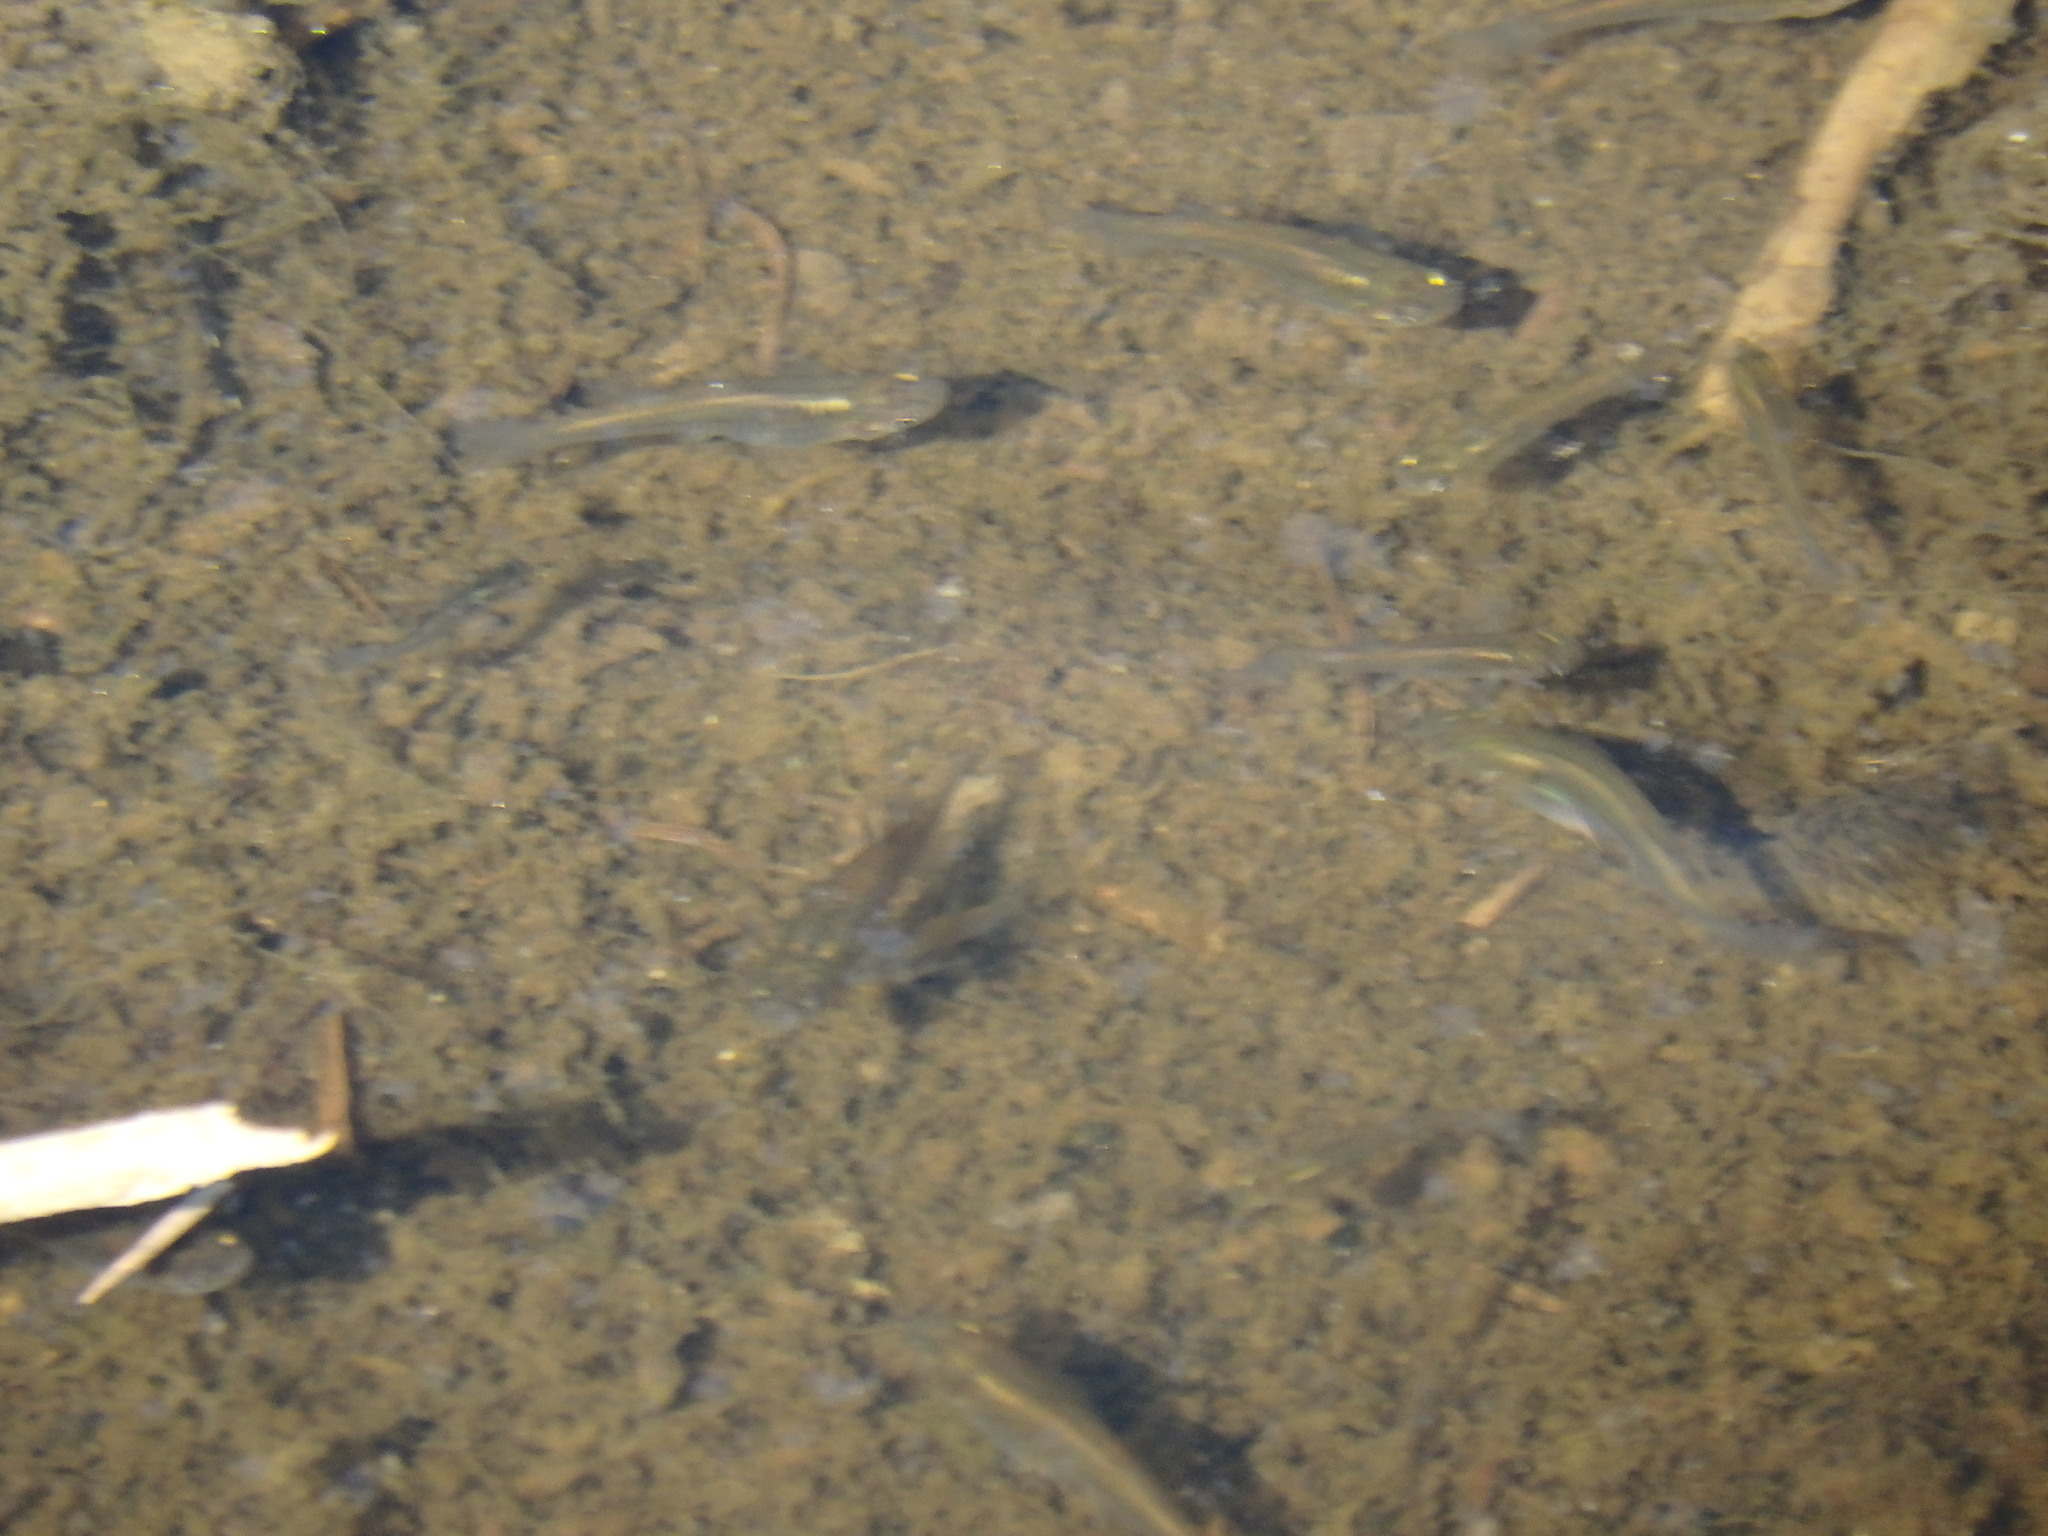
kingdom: Animalia
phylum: Chordata
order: Cyprinodontiformes
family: Poeciliidae
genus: Gambusia
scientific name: Gambusia holbrooki
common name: Eastern mosquitofish
